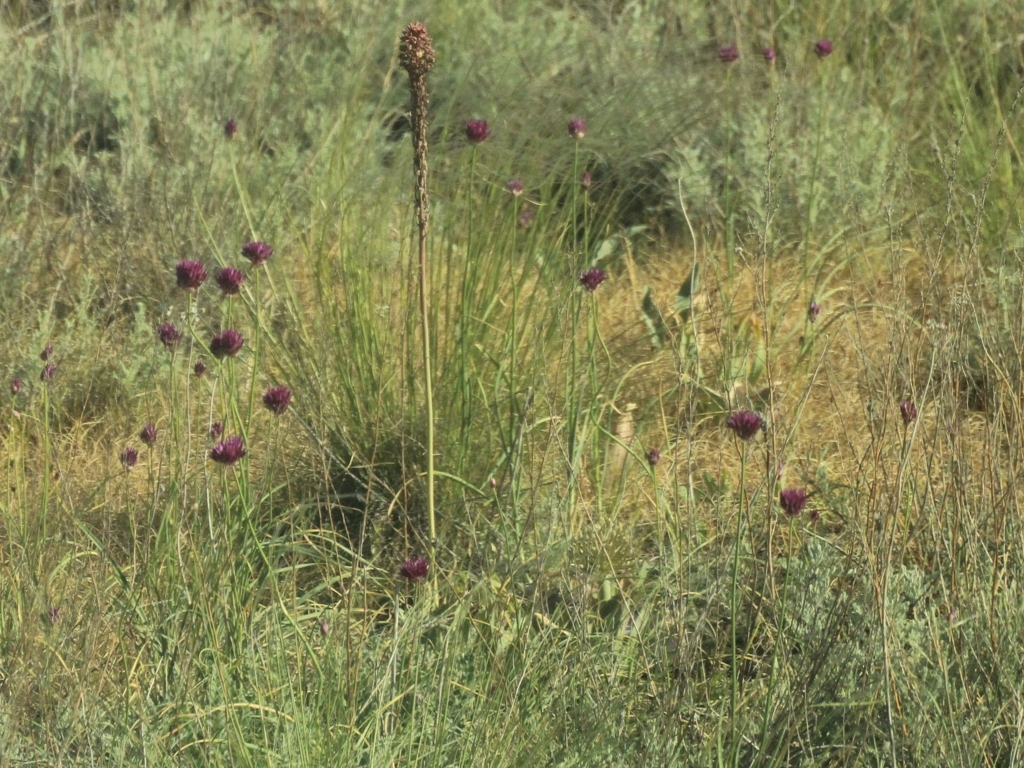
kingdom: Plantae
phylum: Tracheophyta
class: Liliopsida
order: Asparagales
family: Amaryllidaceae
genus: Allium
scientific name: Allium barsczewskii
